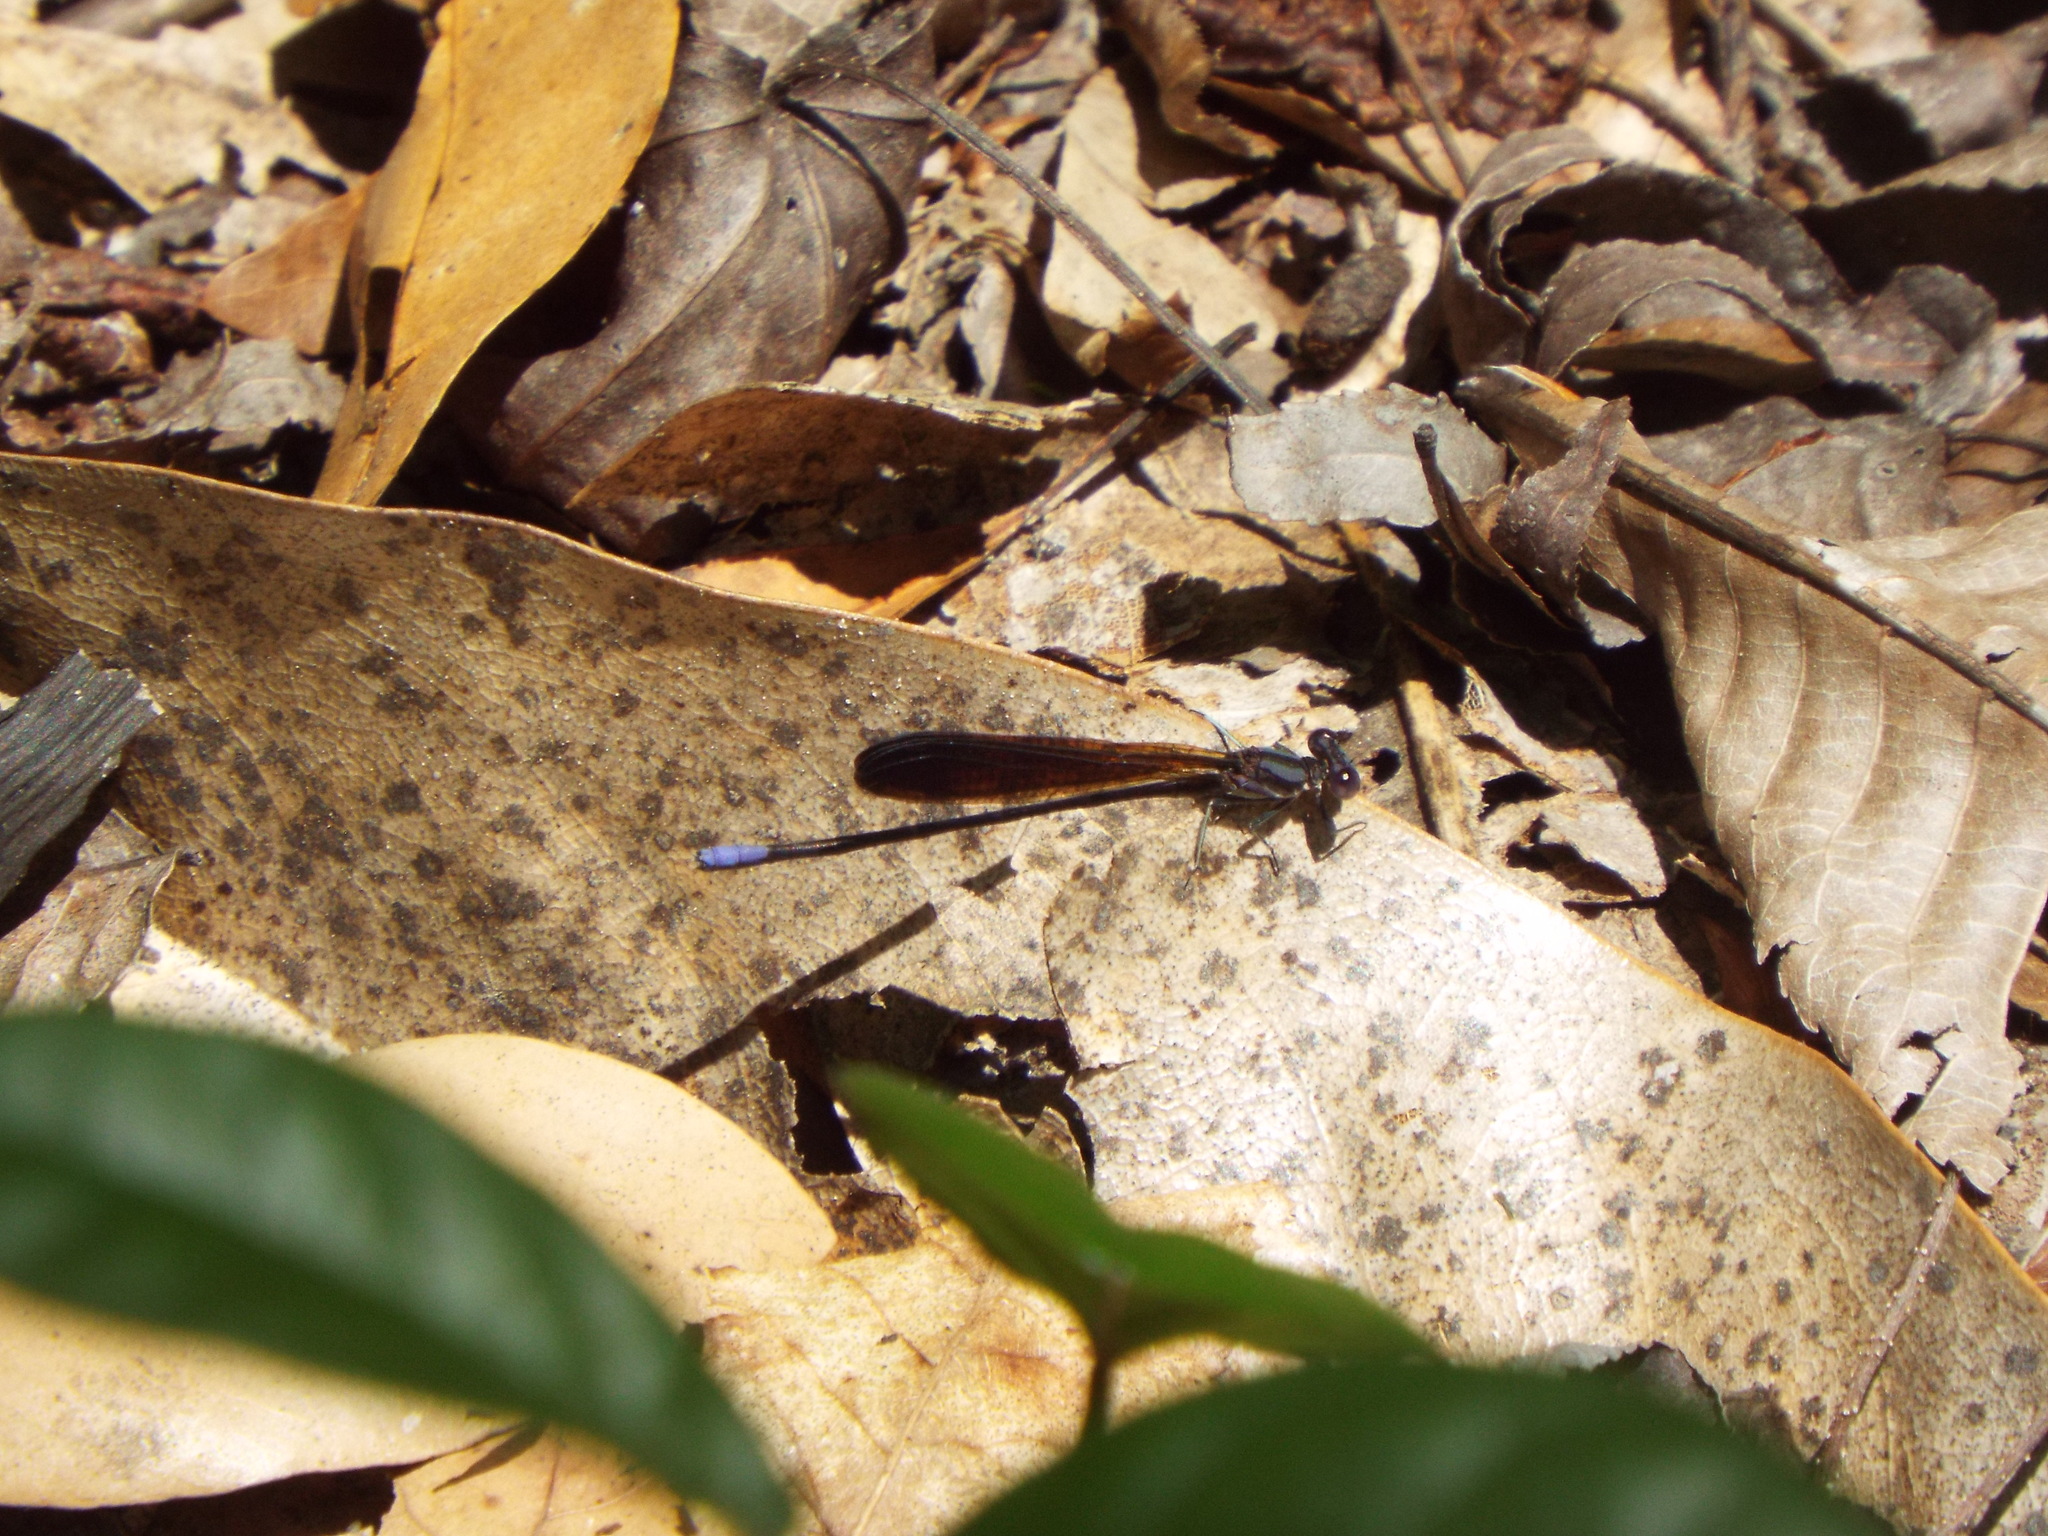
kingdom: Animalia
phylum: Arthropoda
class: Insecta
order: Odonata
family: Coenagrionidae
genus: Argia
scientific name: Argia fumipennis
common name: Variable dancer
